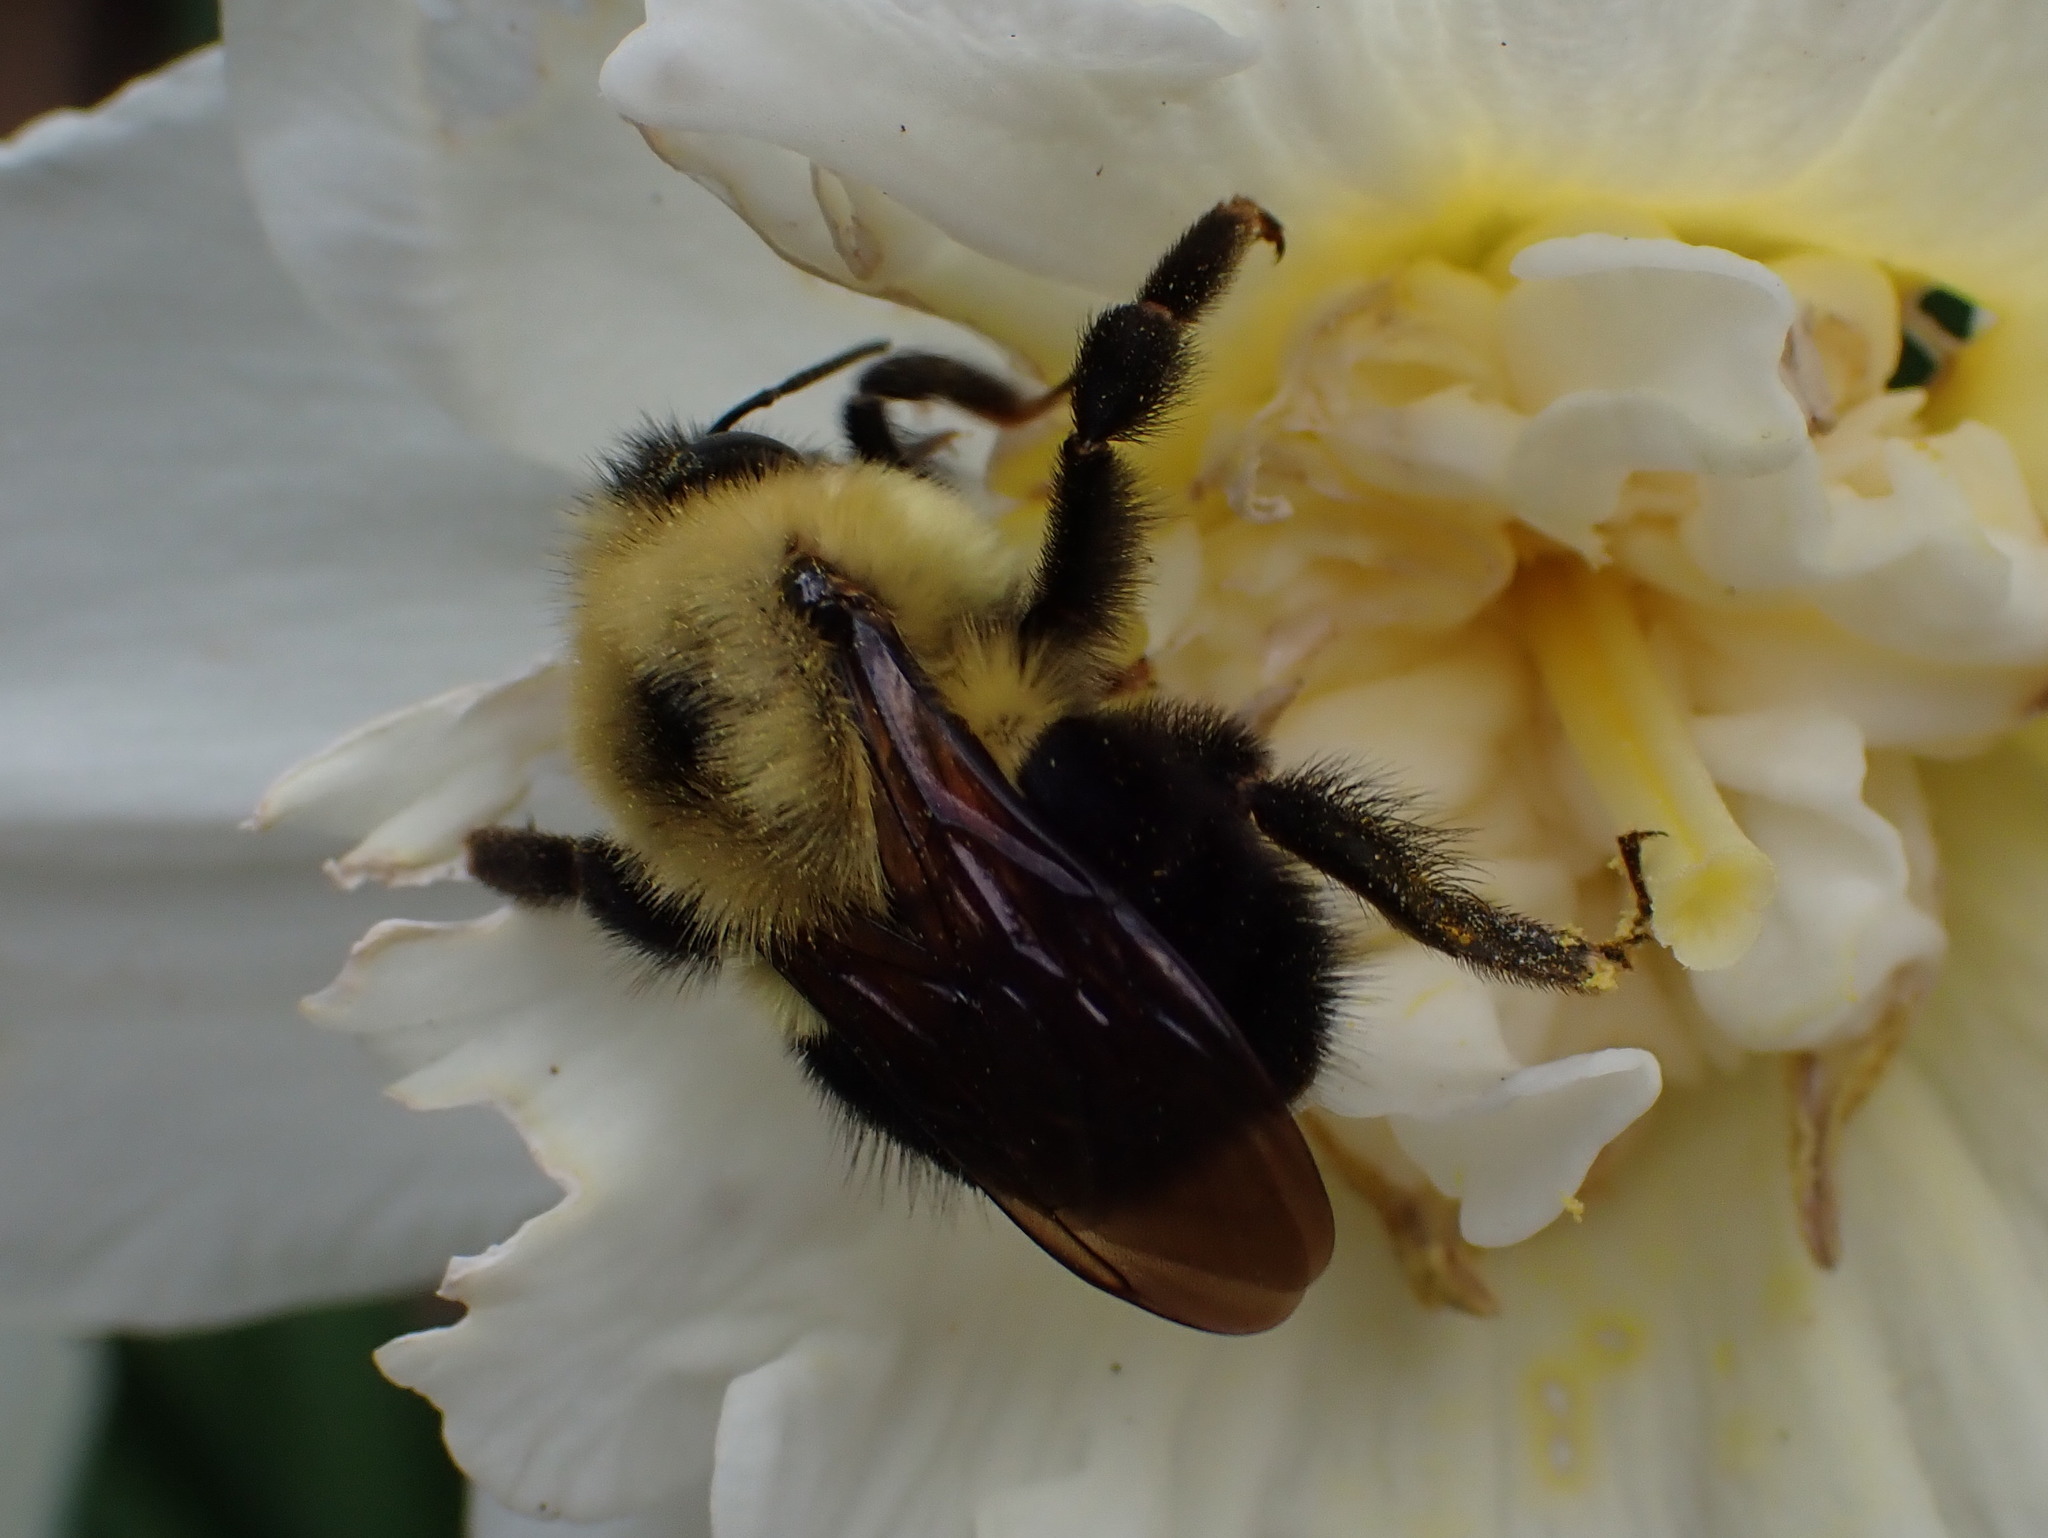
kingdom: Animalia
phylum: Arthropoda
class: Insecta
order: Hymenoptera
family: Apidae
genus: Bombus
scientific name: Bombus bimaculatus
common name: Two-spotted bumble bee
